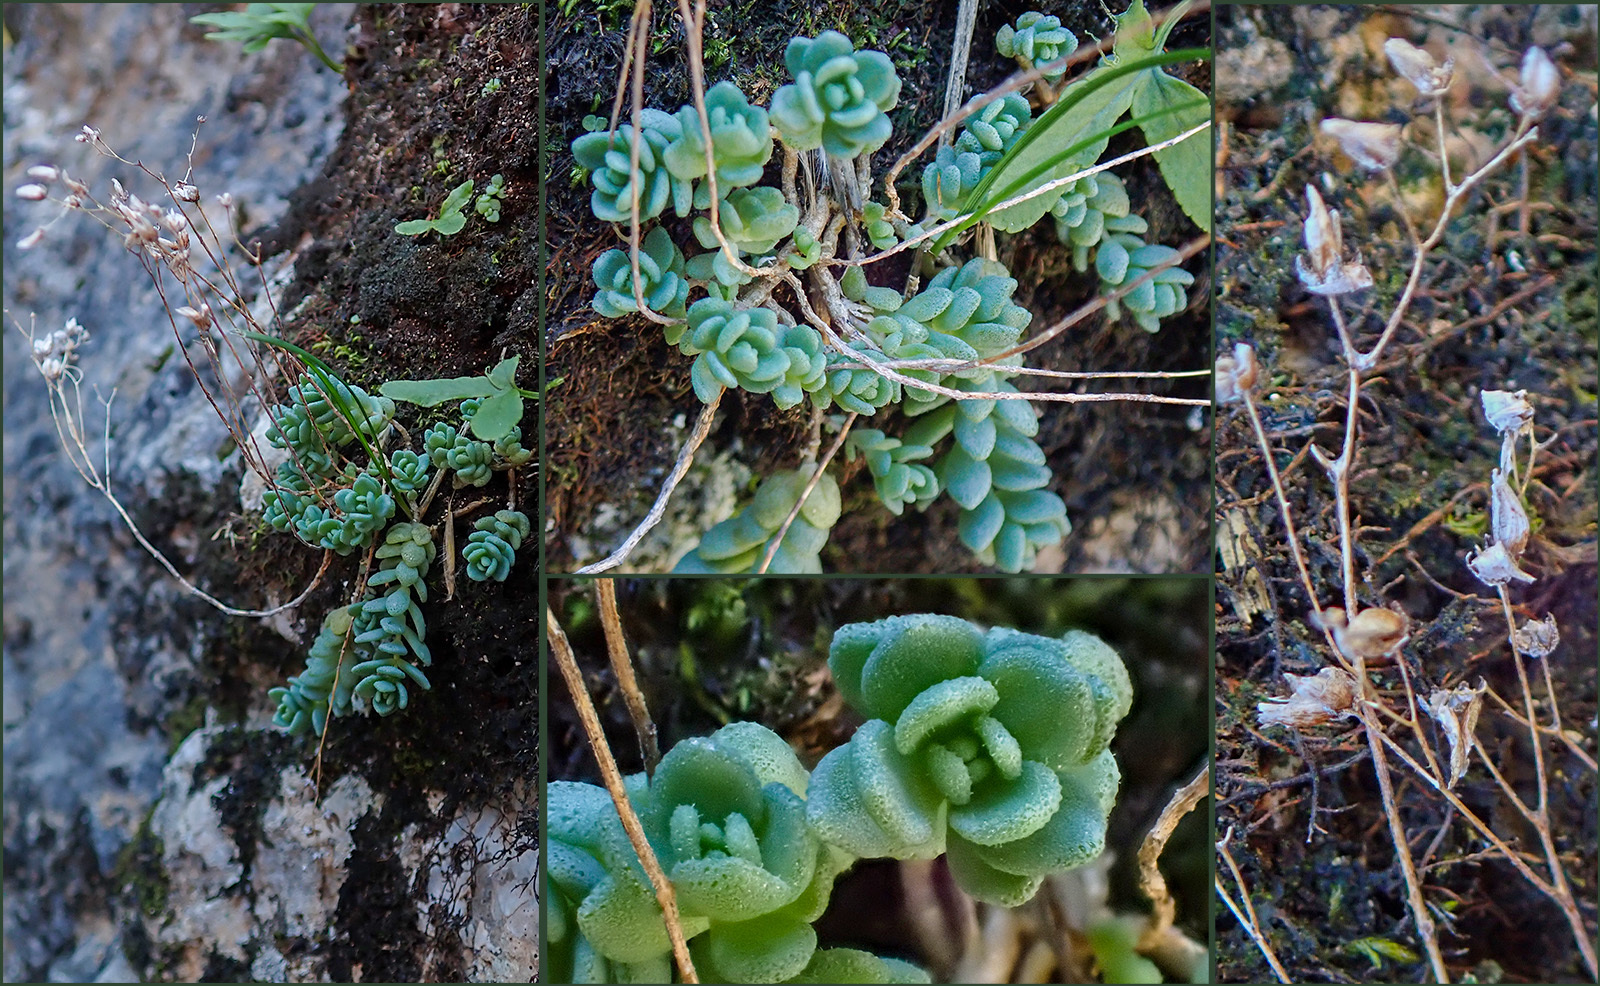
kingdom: Plantae
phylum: Tracheophyta
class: Magnoliopsida
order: Saxifragales
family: Crassulaceae
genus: Sedum
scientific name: Sedum dasyphyllum
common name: Thick-leaf stonecrop
